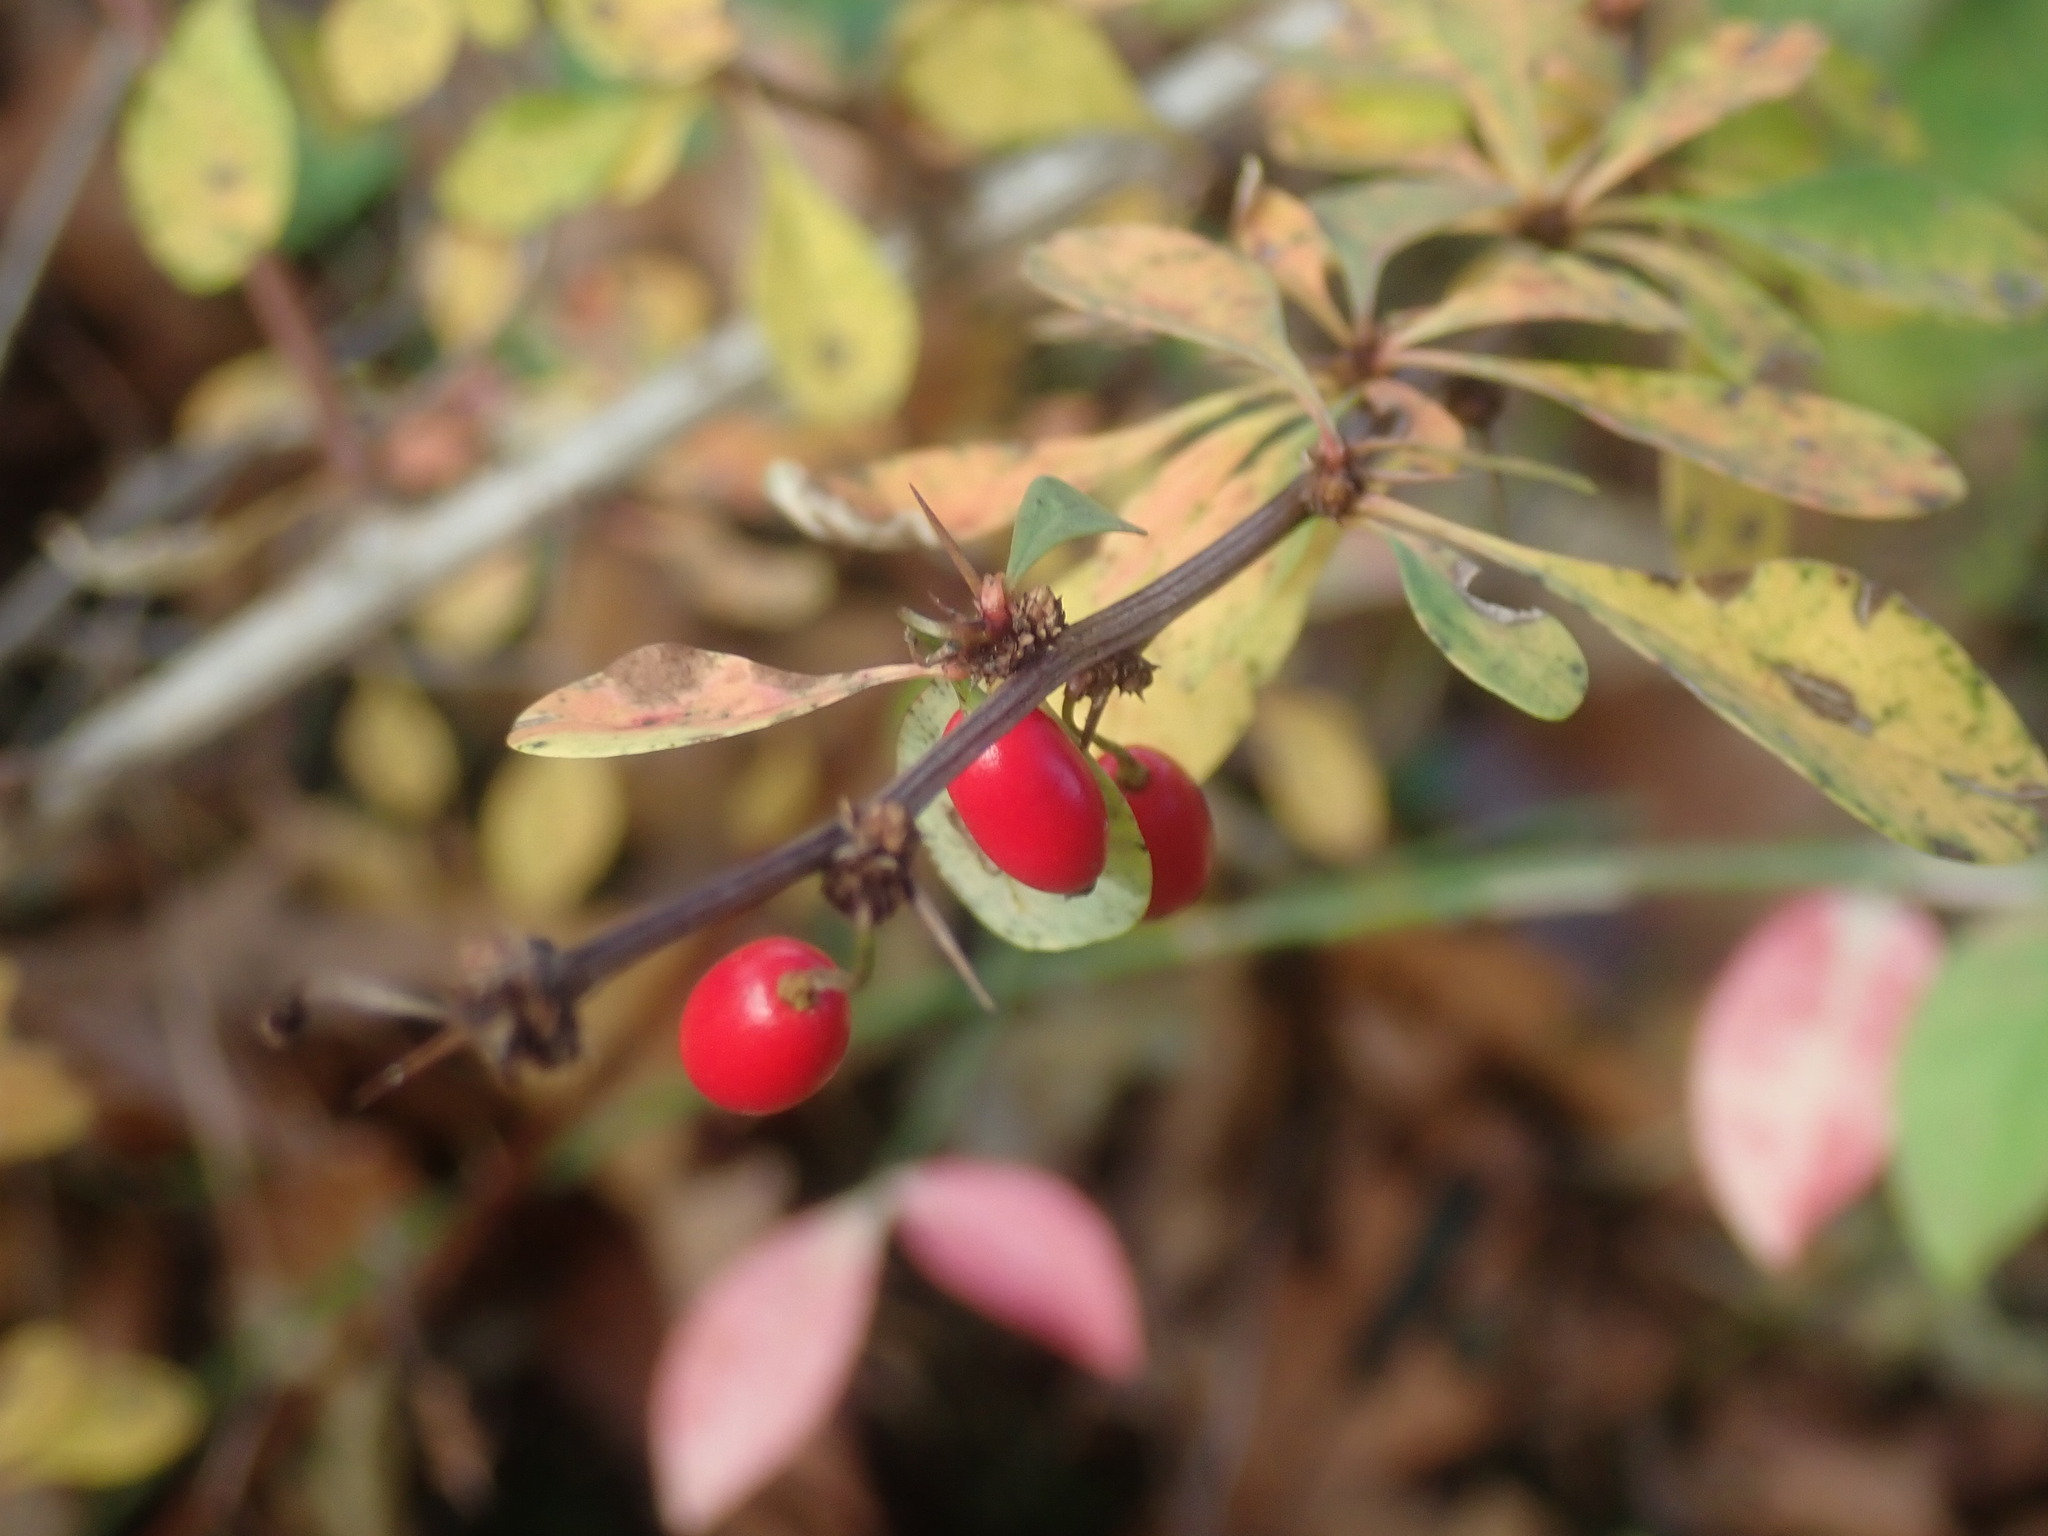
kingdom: Plantae
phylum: Tracheophyta
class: Magnoliopsida
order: Ranunculales
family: Berberidaceae
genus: Berberis
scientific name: Berberis thunbergii
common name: Japanese barberry
